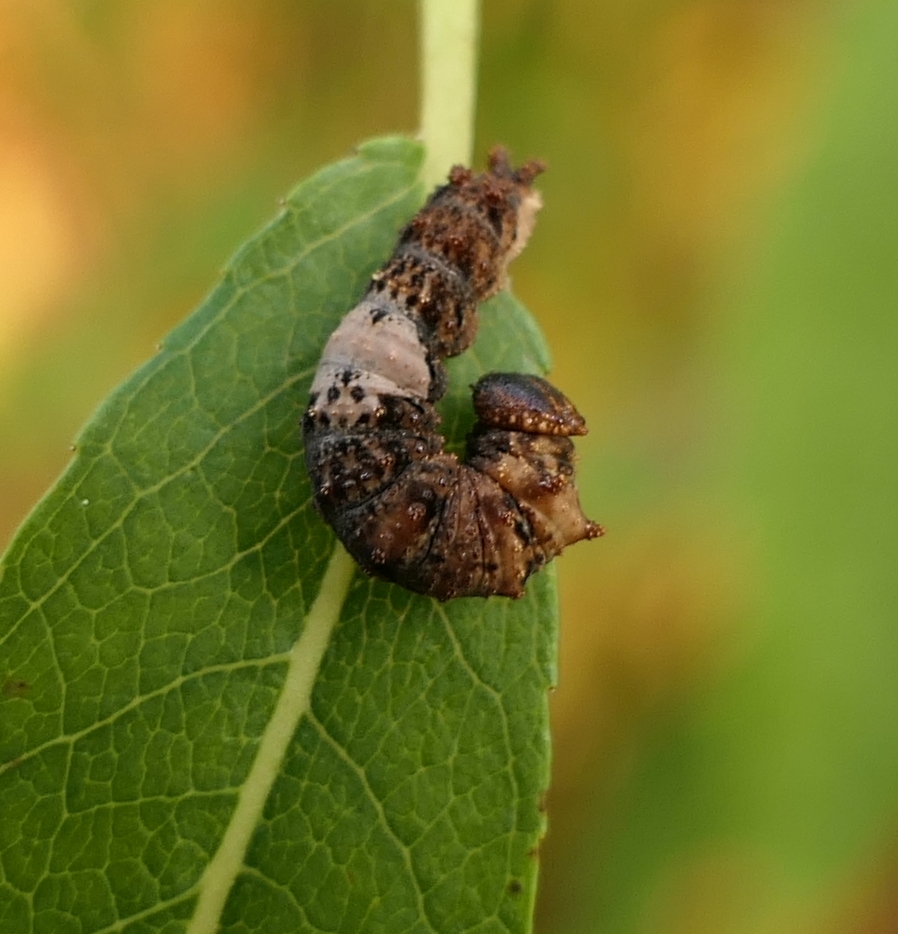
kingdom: Animalia
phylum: Arthropoda
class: Insecta
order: Lepidoptera
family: Nymphalidae
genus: Limenitis
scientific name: Limenitis
